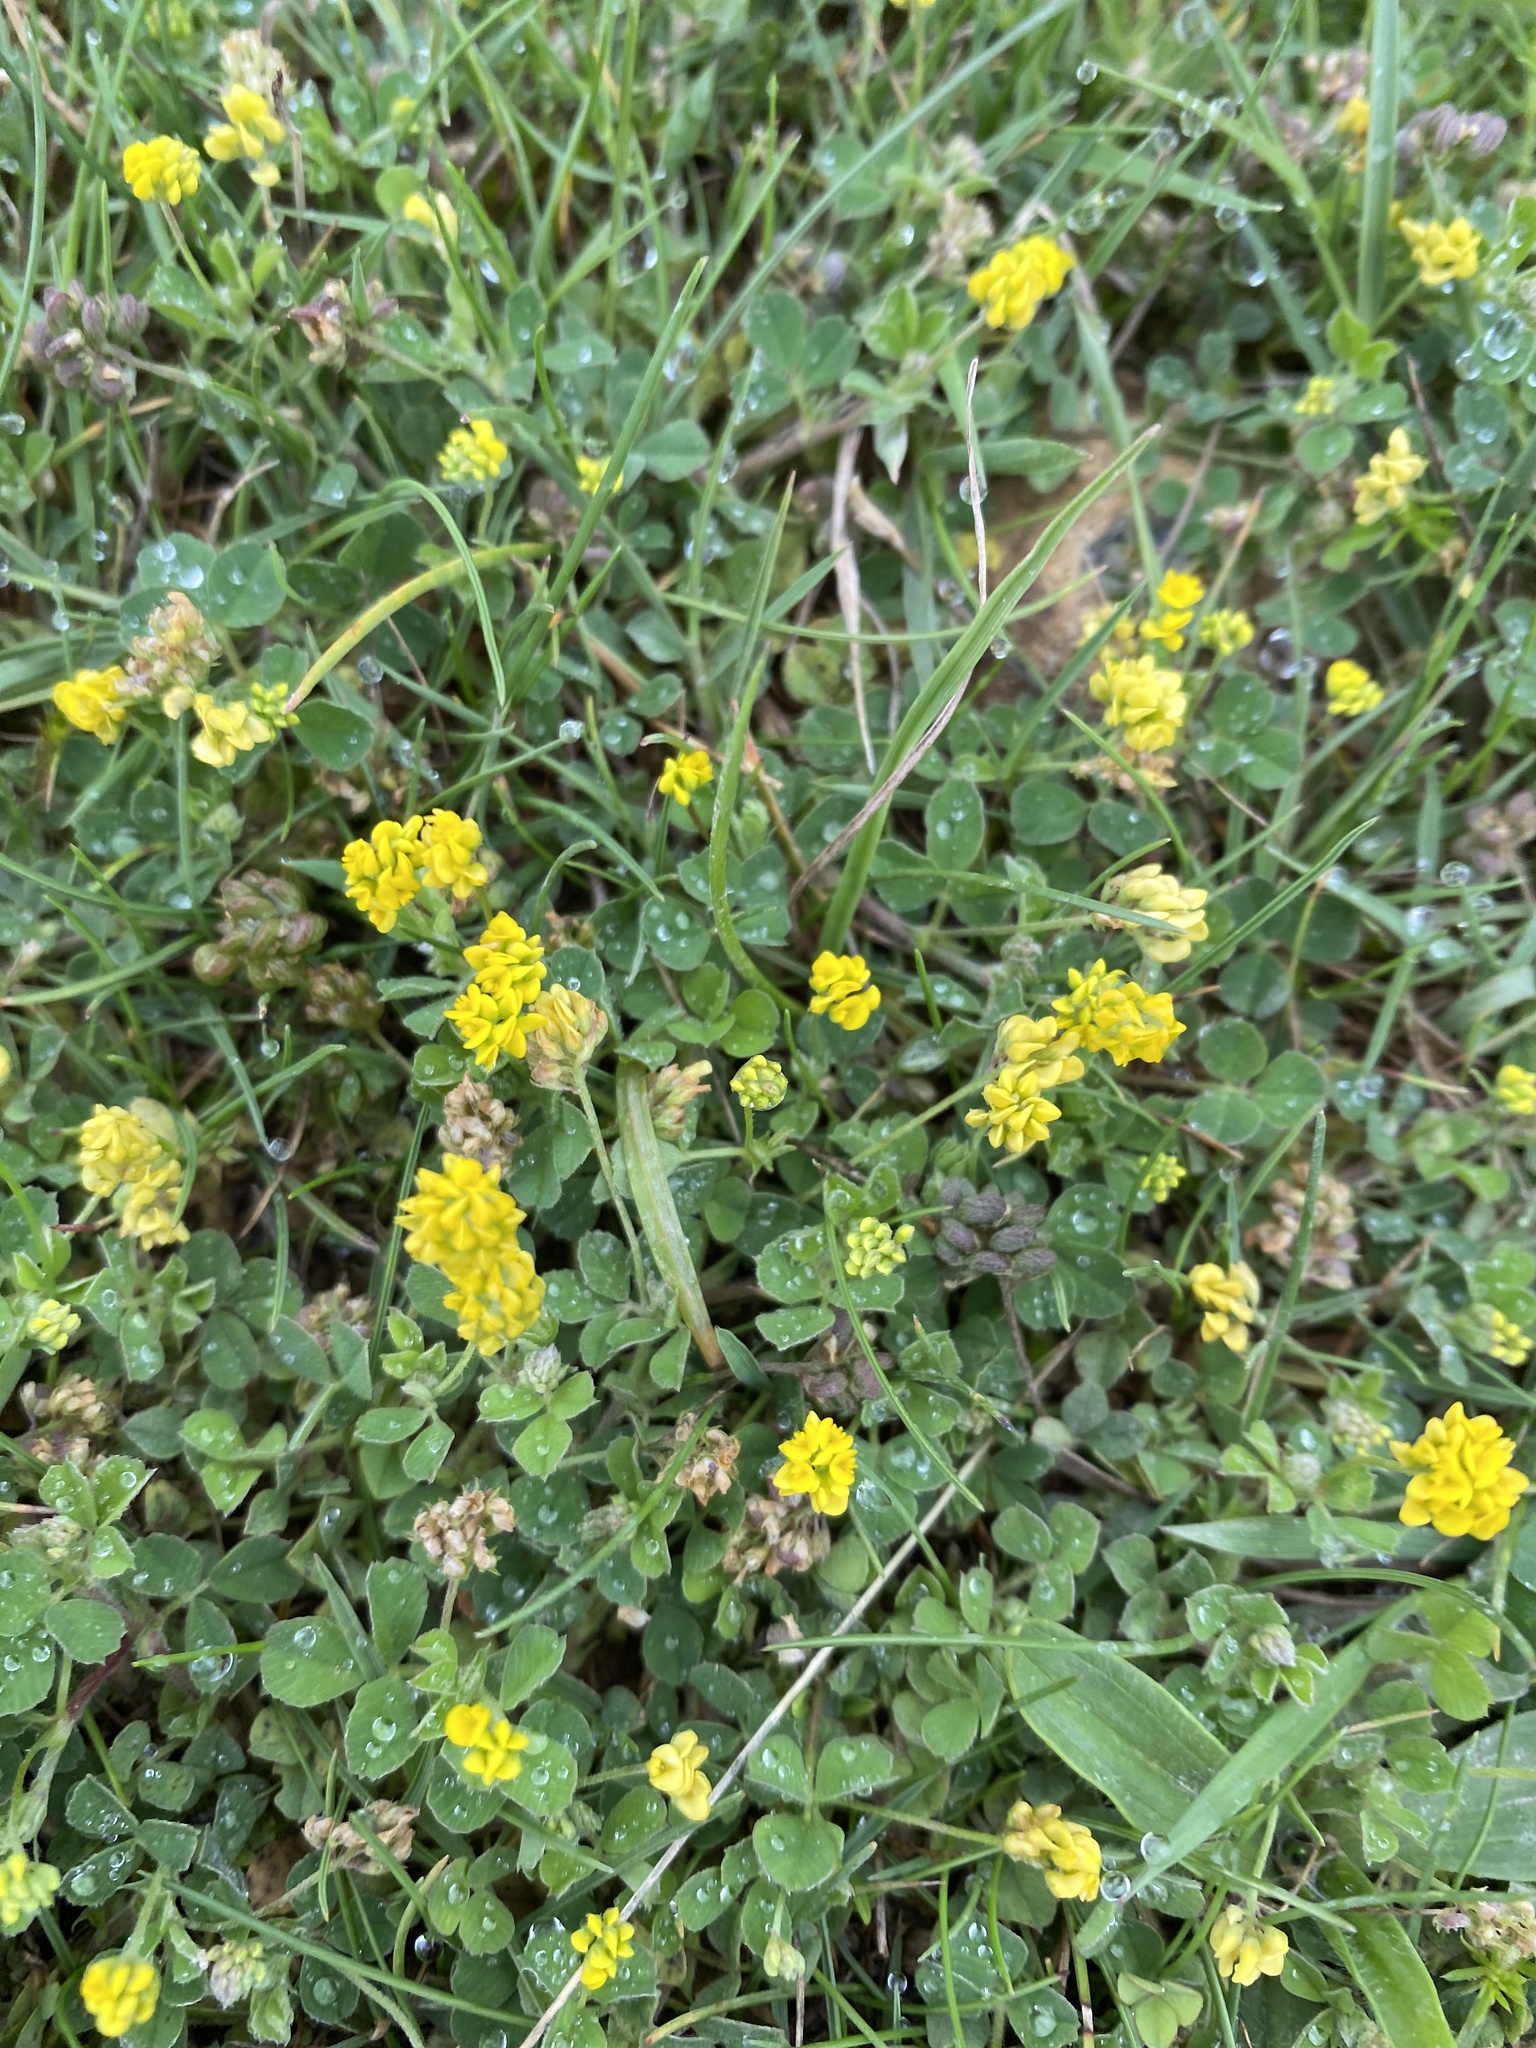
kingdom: Plantae
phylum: Tracheophyta
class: Magnoliopsida
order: Fabales
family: Fabaceae
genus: Medicago
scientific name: Medicago lupulina
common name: Black medick
